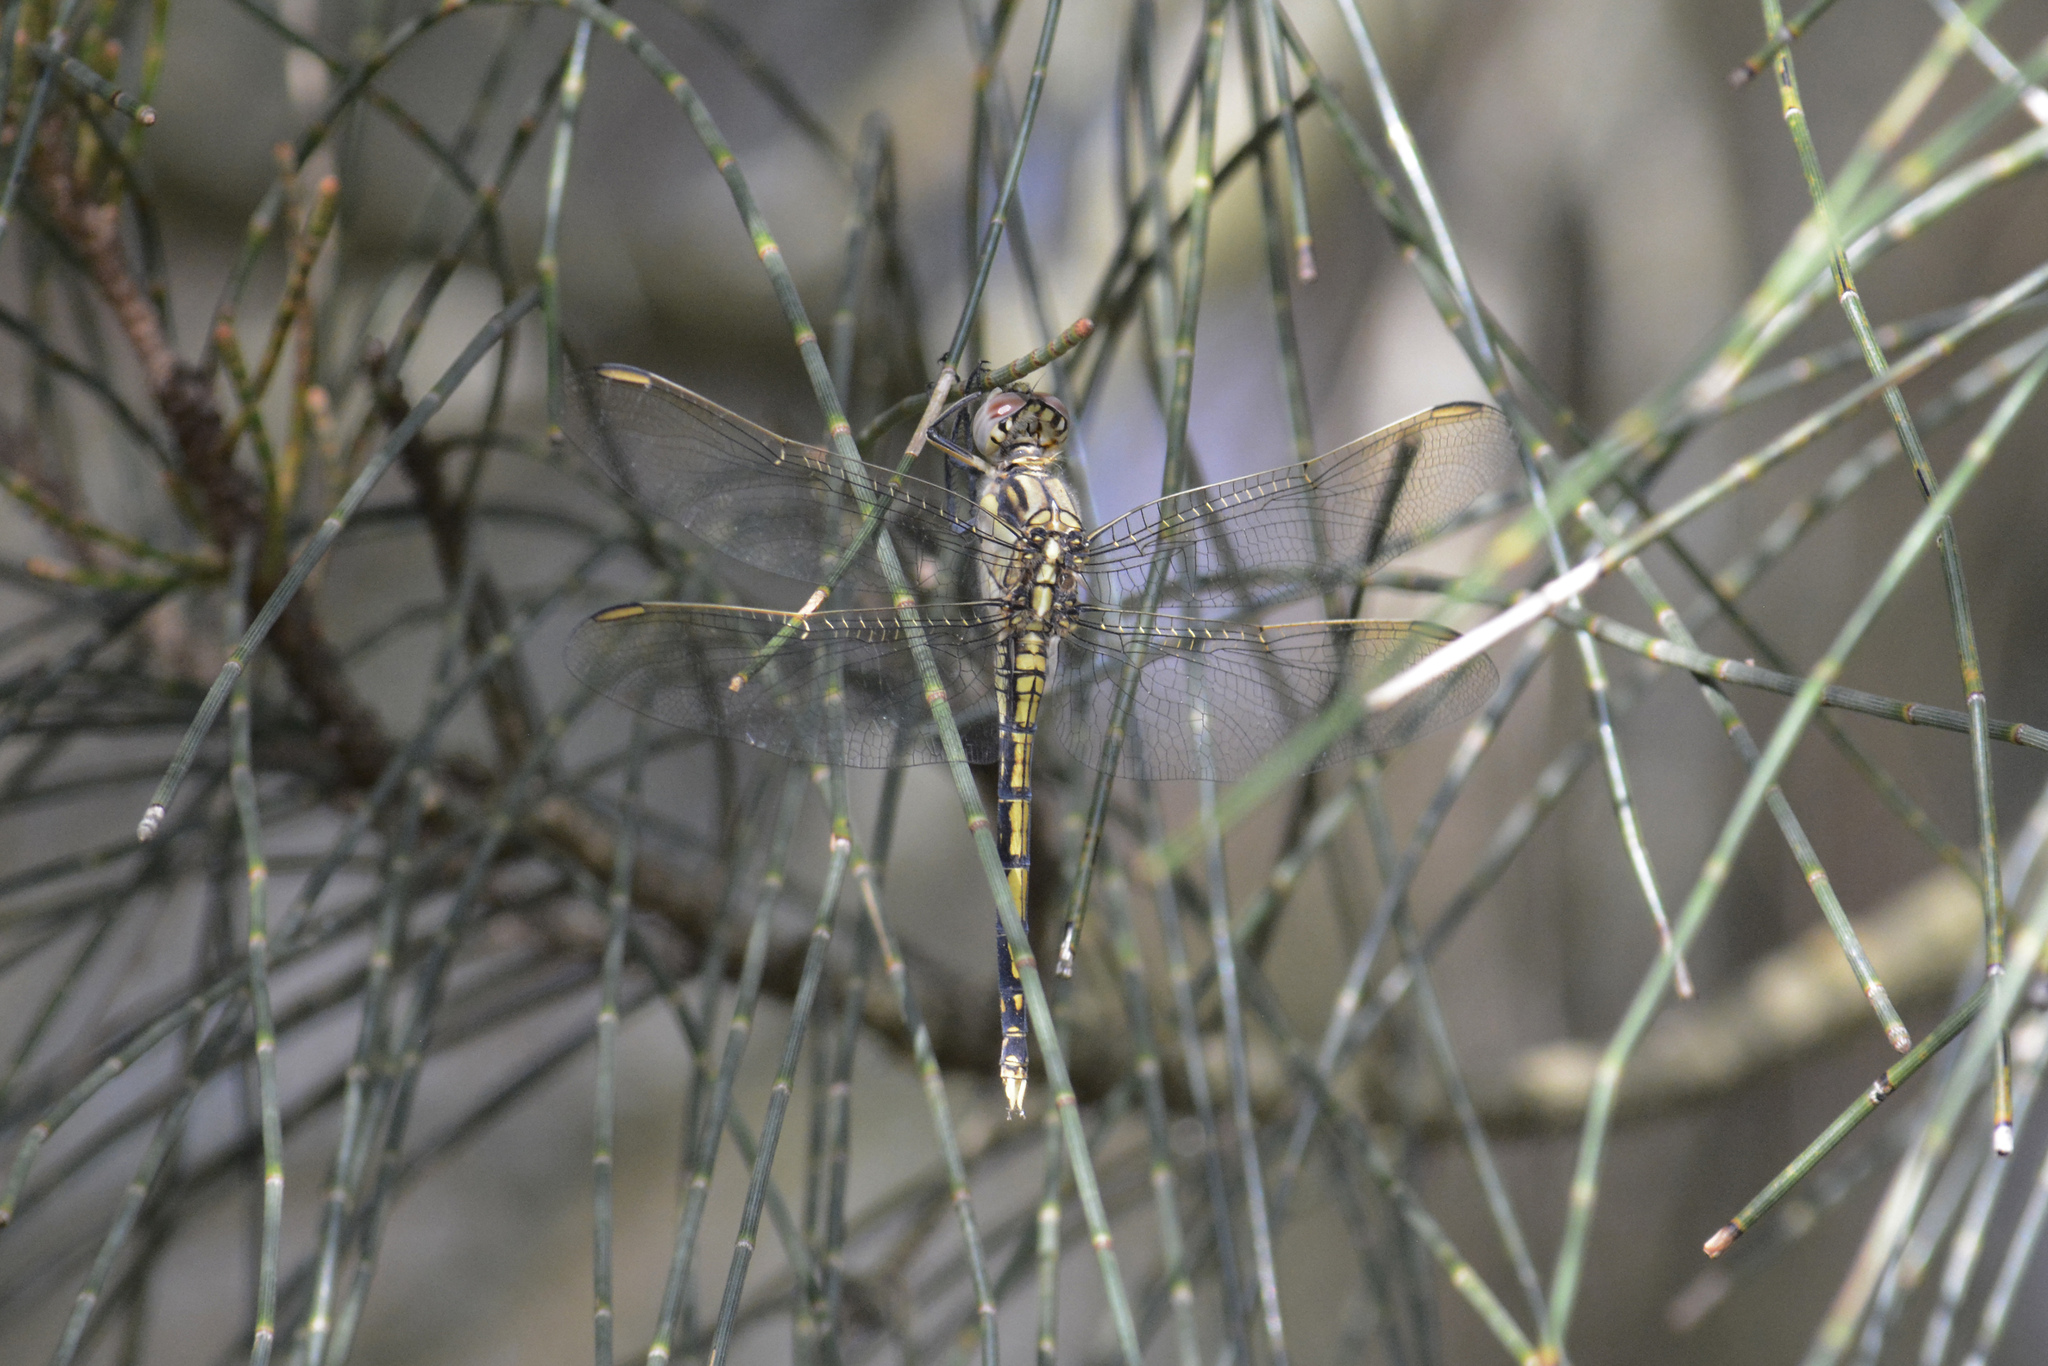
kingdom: Animalia
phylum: Arthropoda
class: Insecta
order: Odonata
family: Libellulidae
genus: Orthetrum
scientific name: Orthetrum caledonicum
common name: Blue skimmer
